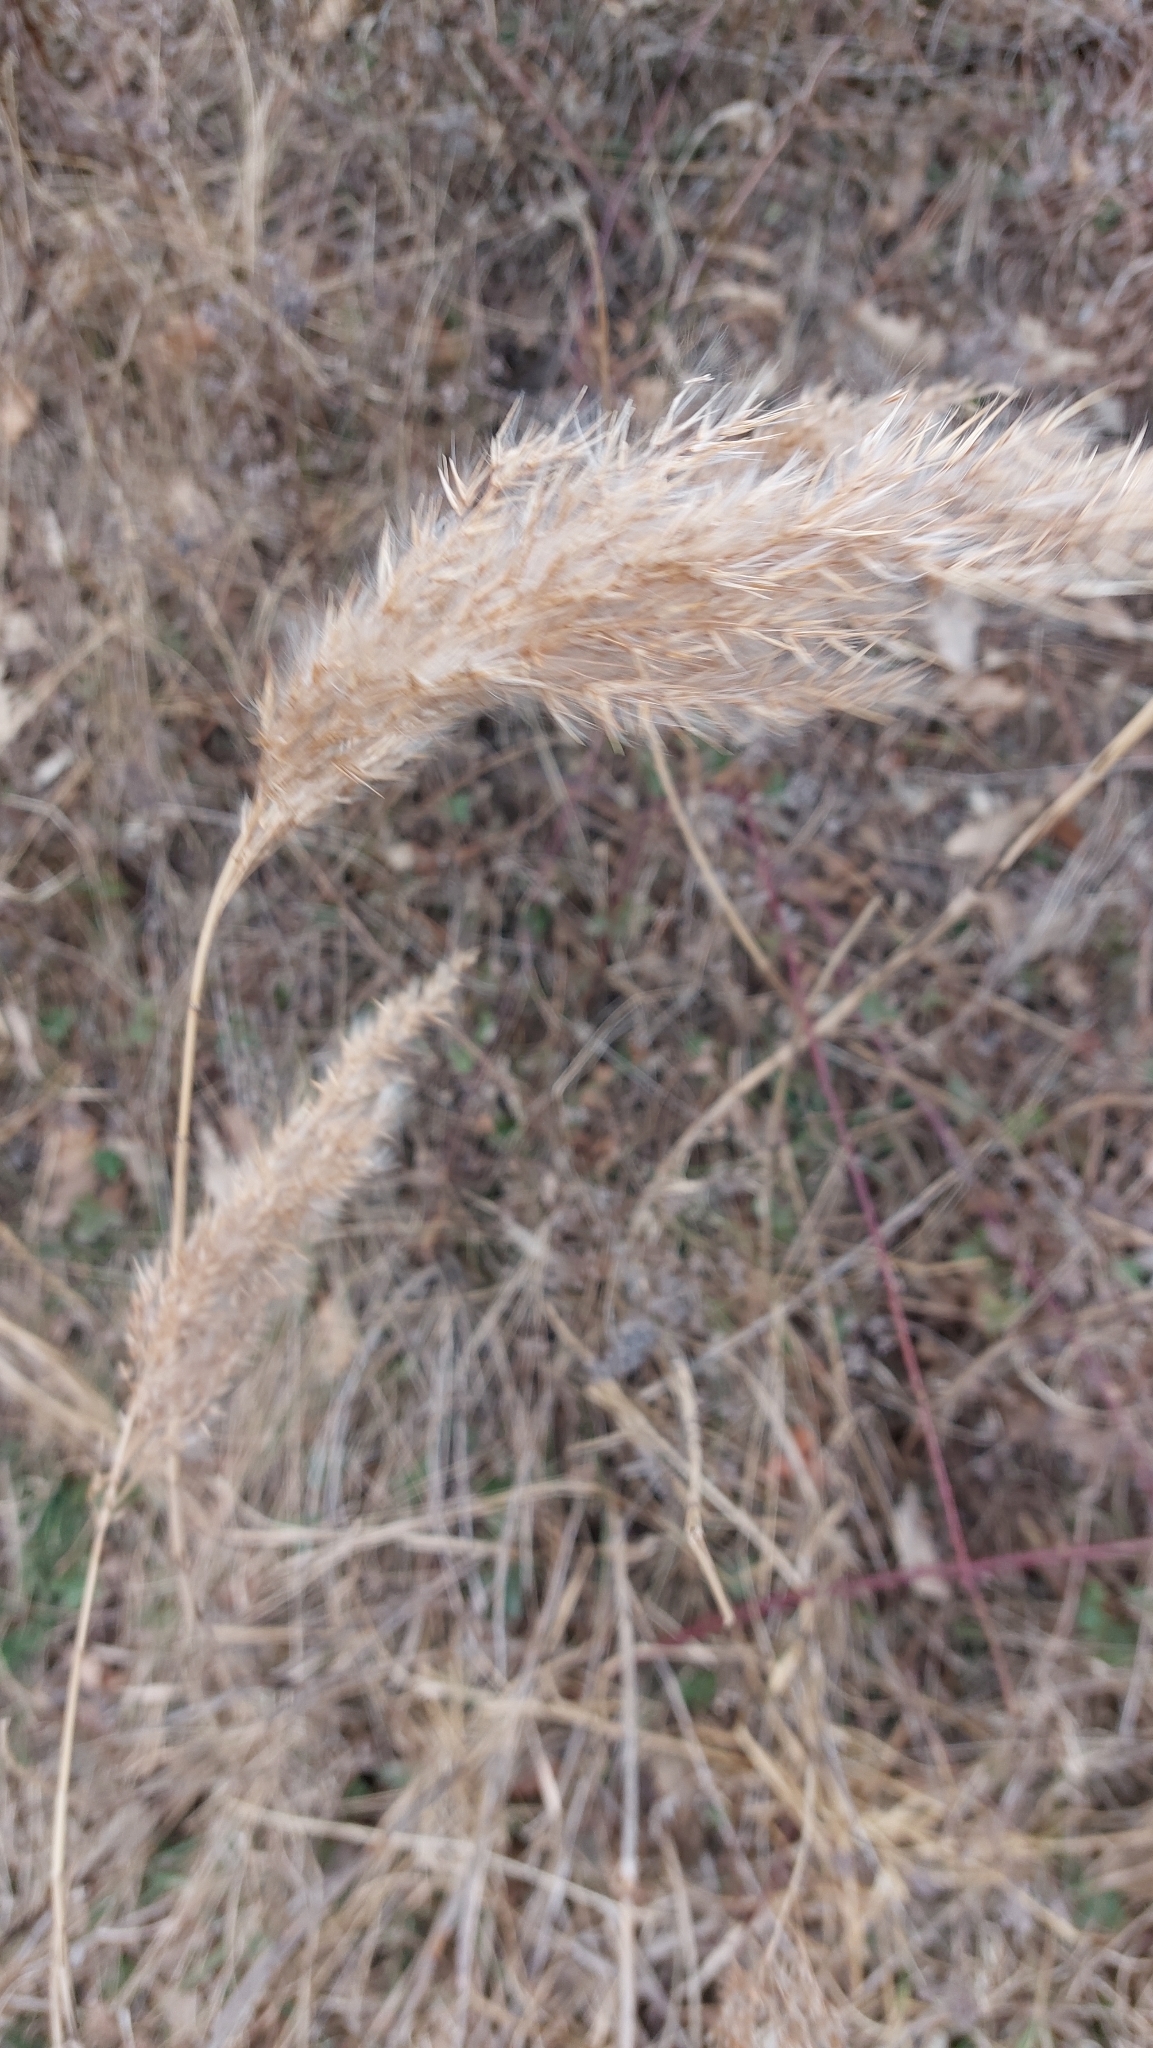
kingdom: Plantae
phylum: Tracheophyta
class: Liliopsida
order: Poales
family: Poaceae
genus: Phragmites
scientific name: Phragmites australis
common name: Common reed
